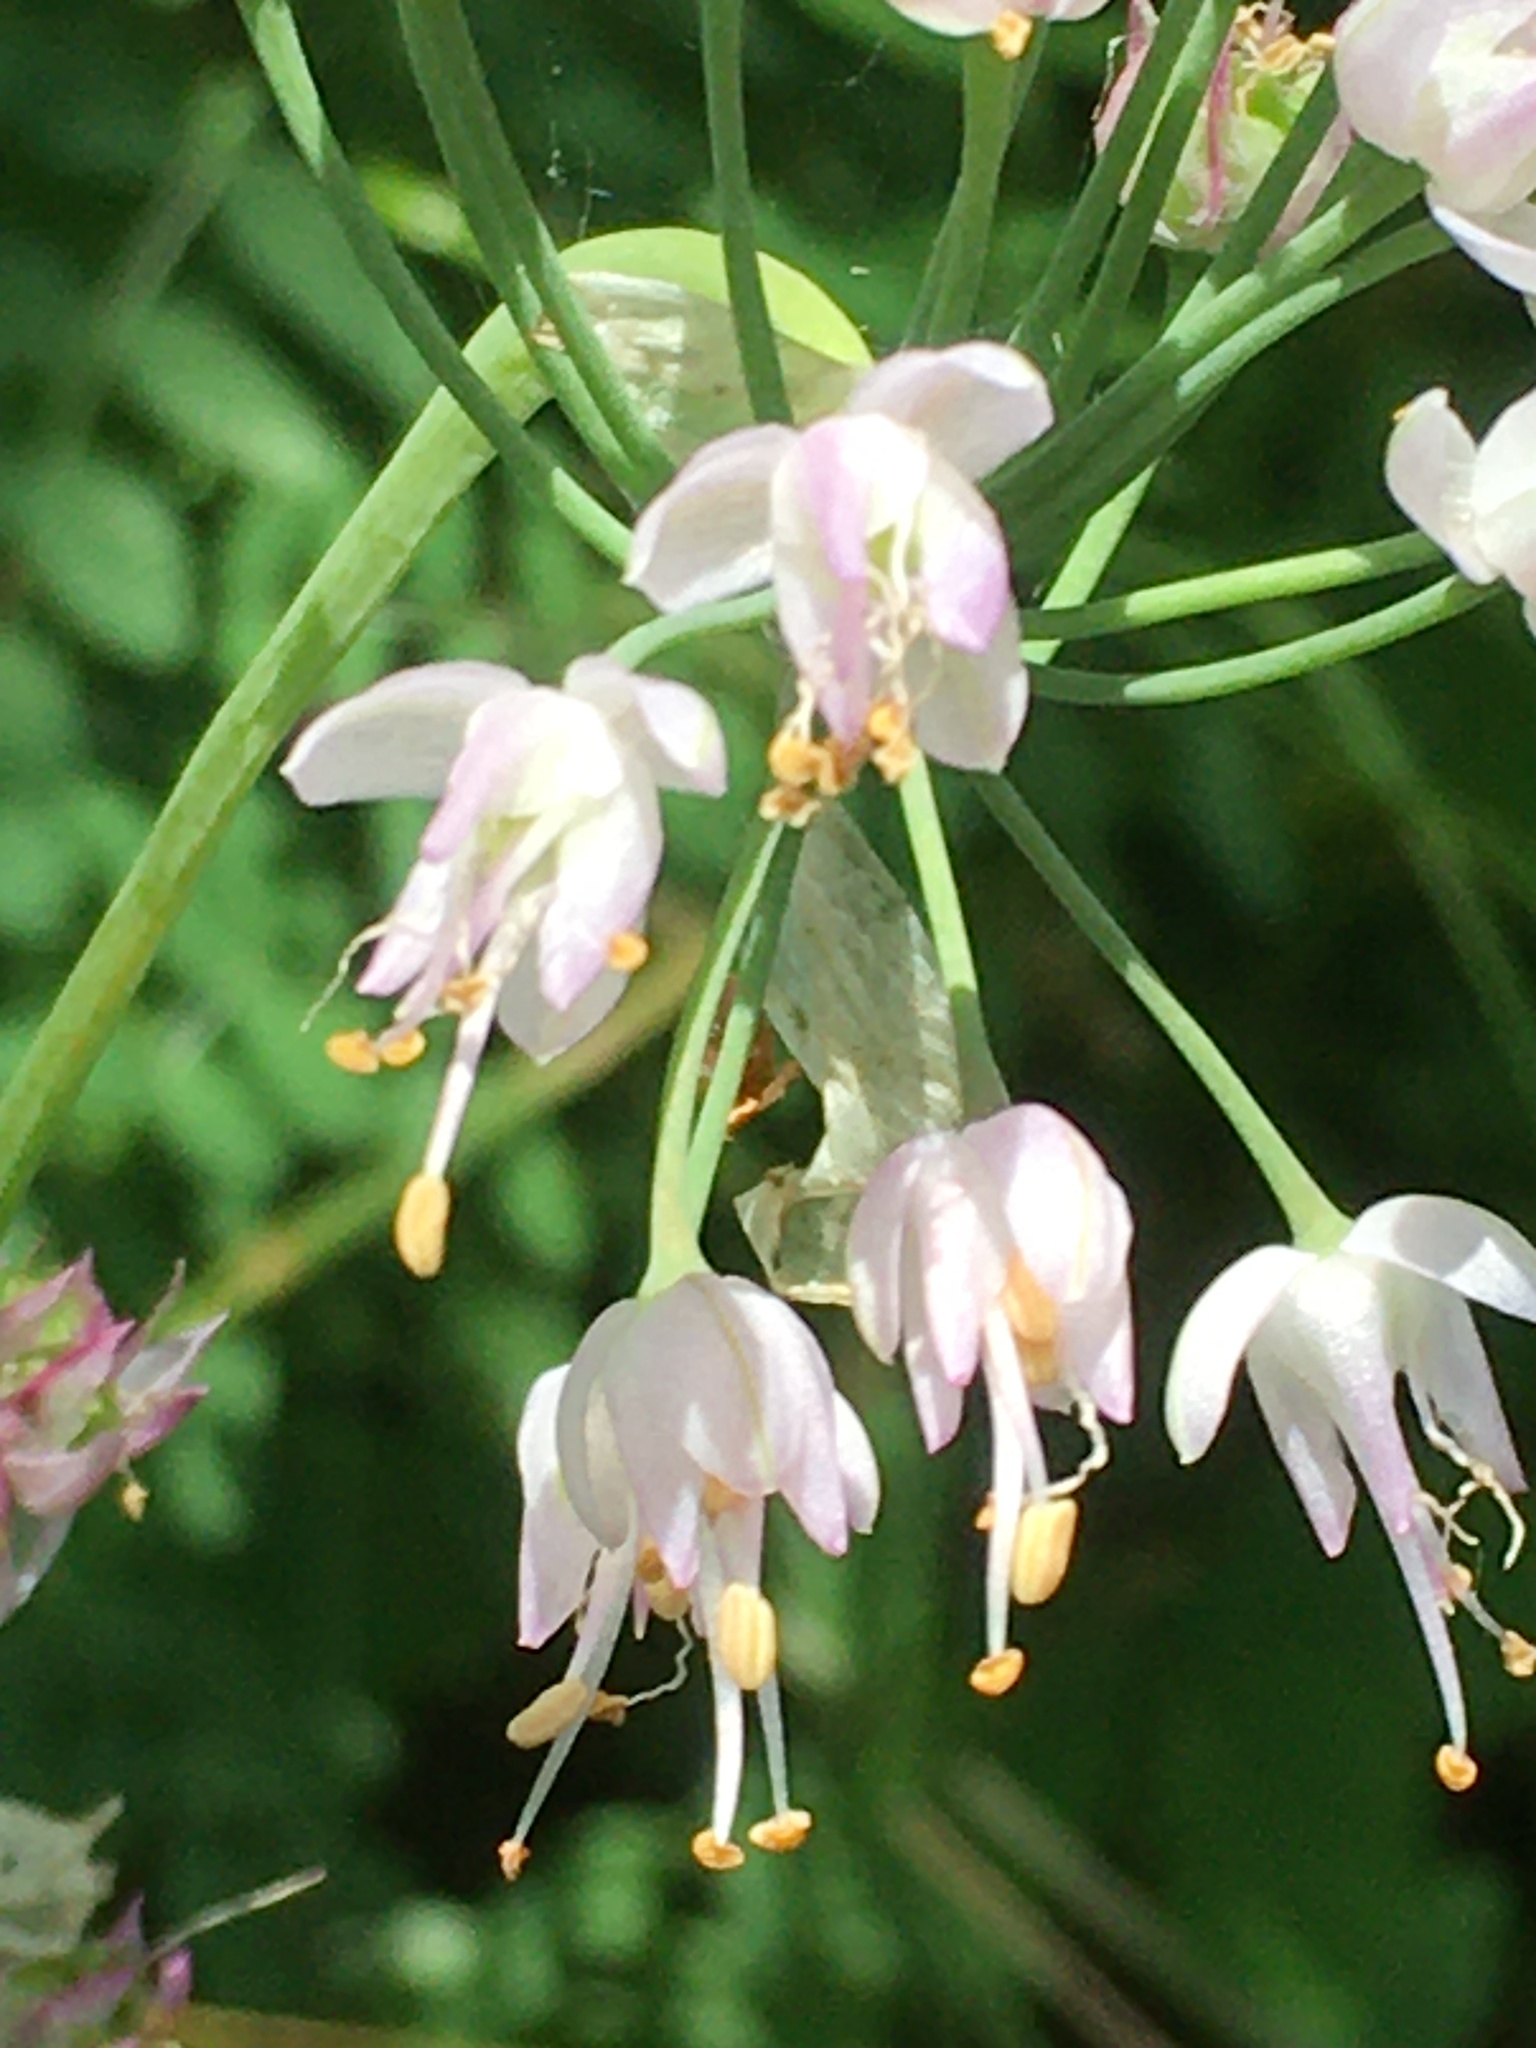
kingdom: Plantae
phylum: Tracheophyta
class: Liliopsida
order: Asparagales
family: Amaryllidaceae
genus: Allium
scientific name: Allium cernuum
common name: Nodding onion
